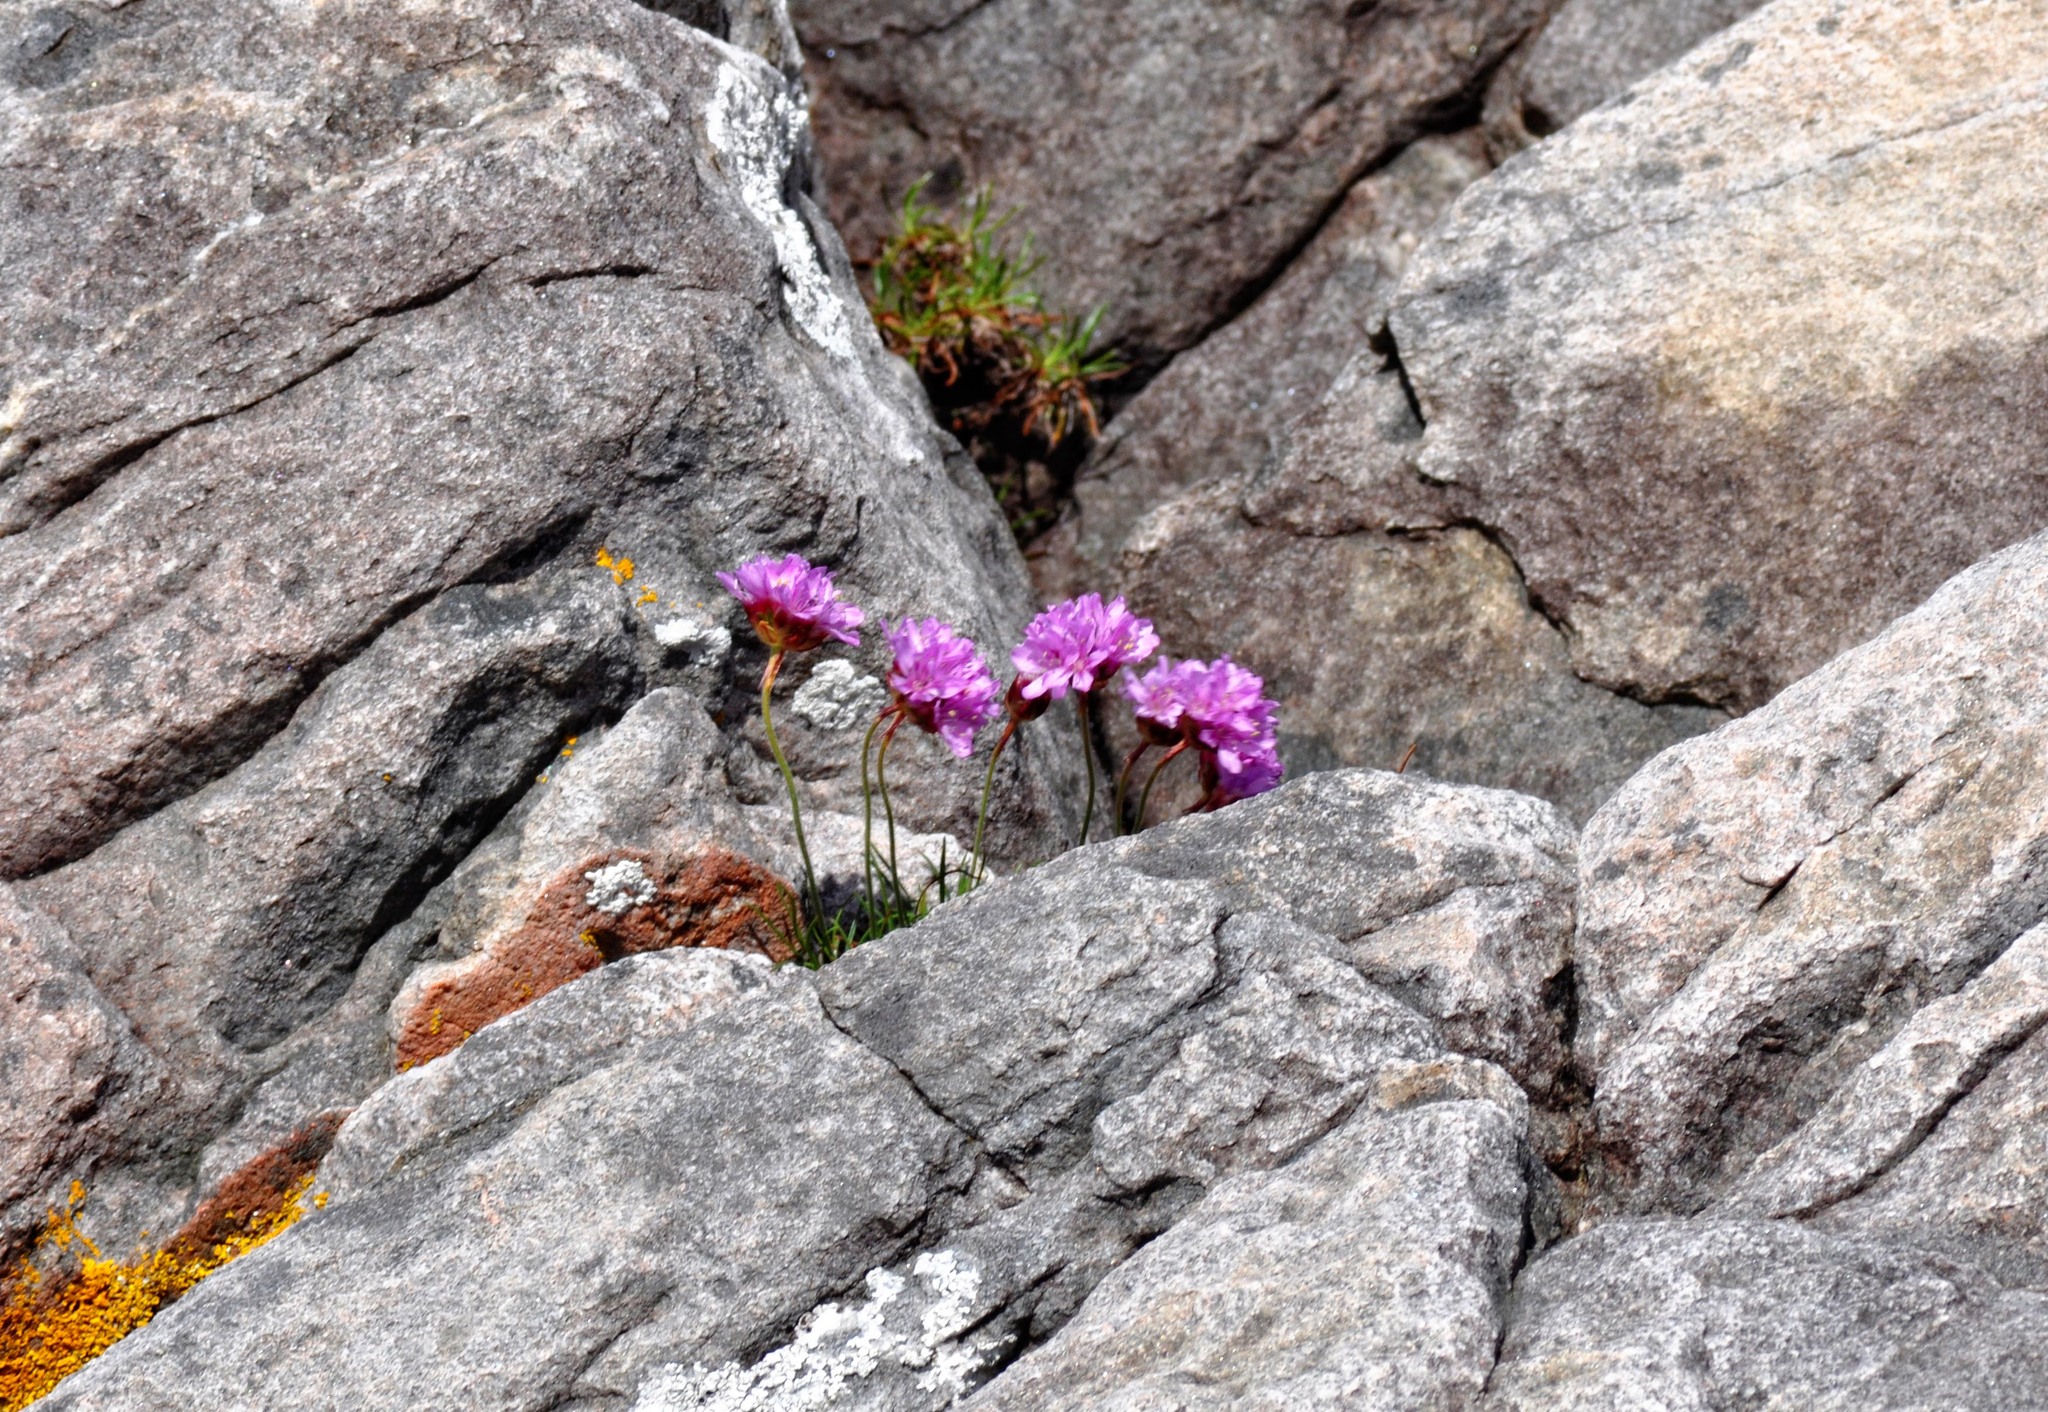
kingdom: Plantae
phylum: Tracheophyta
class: Magnoliopsida
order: Caryophyllales
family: Plumbaginaceae
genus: Armeria
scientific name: Armeria maritima
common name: Thrift
